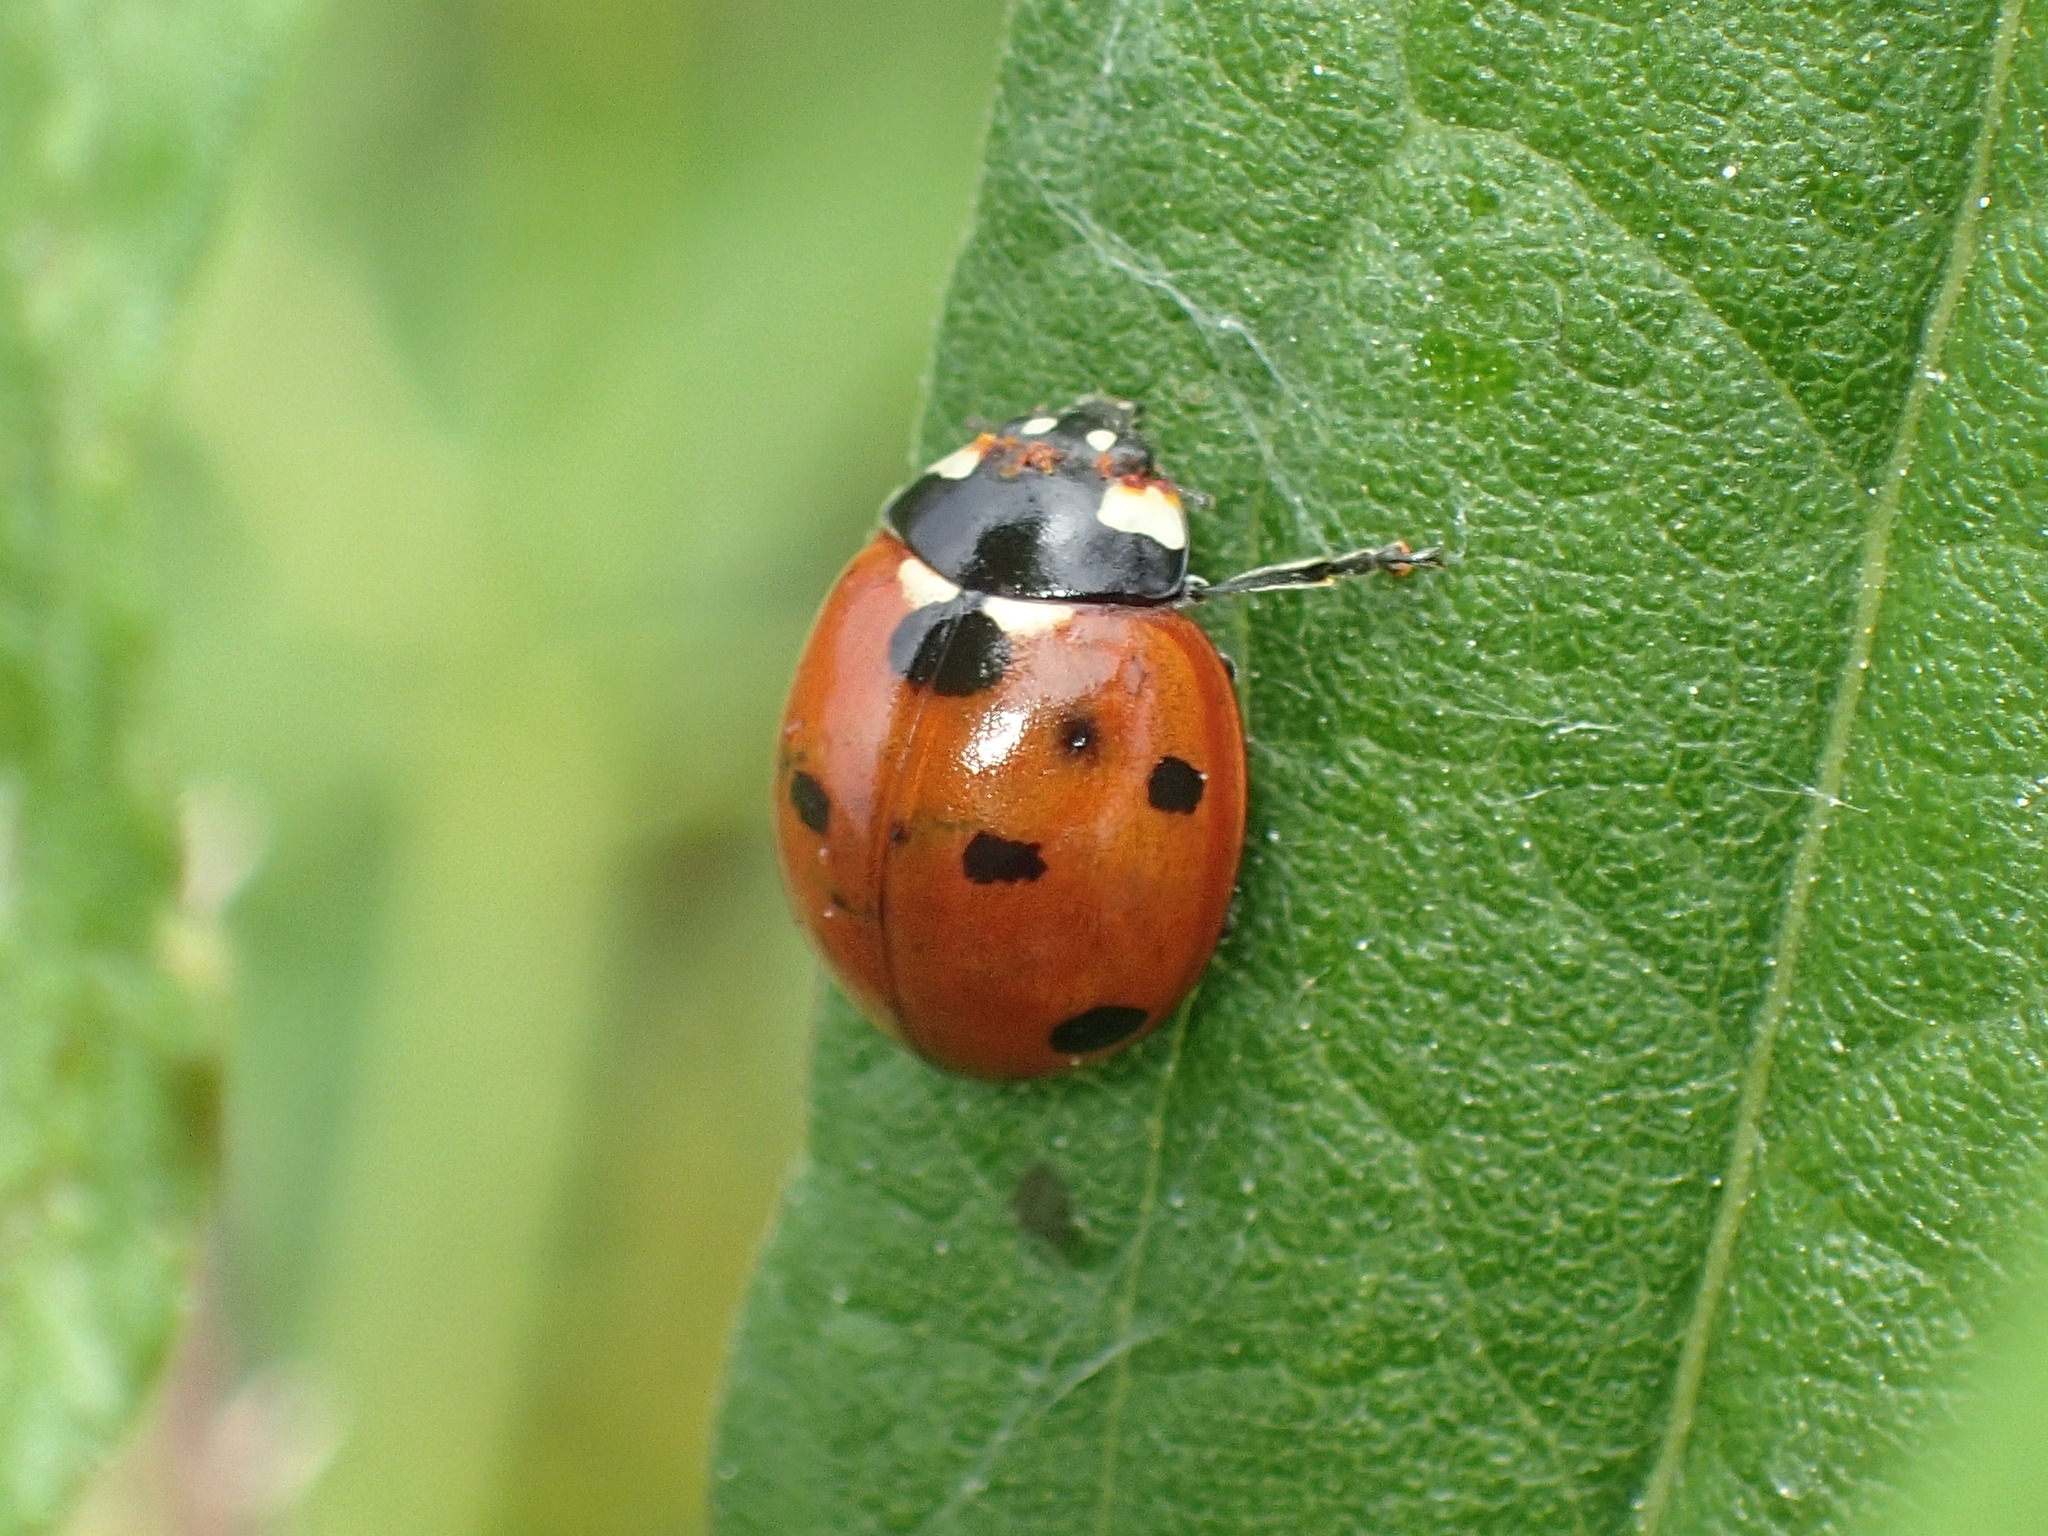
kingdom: Animalia
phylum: Arthropoda
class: Insecta
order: Coleoptera
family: Coccinellidae
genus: Coccinella
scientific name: Coccinella septempunctata
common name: Sevenspotted lady beetle
